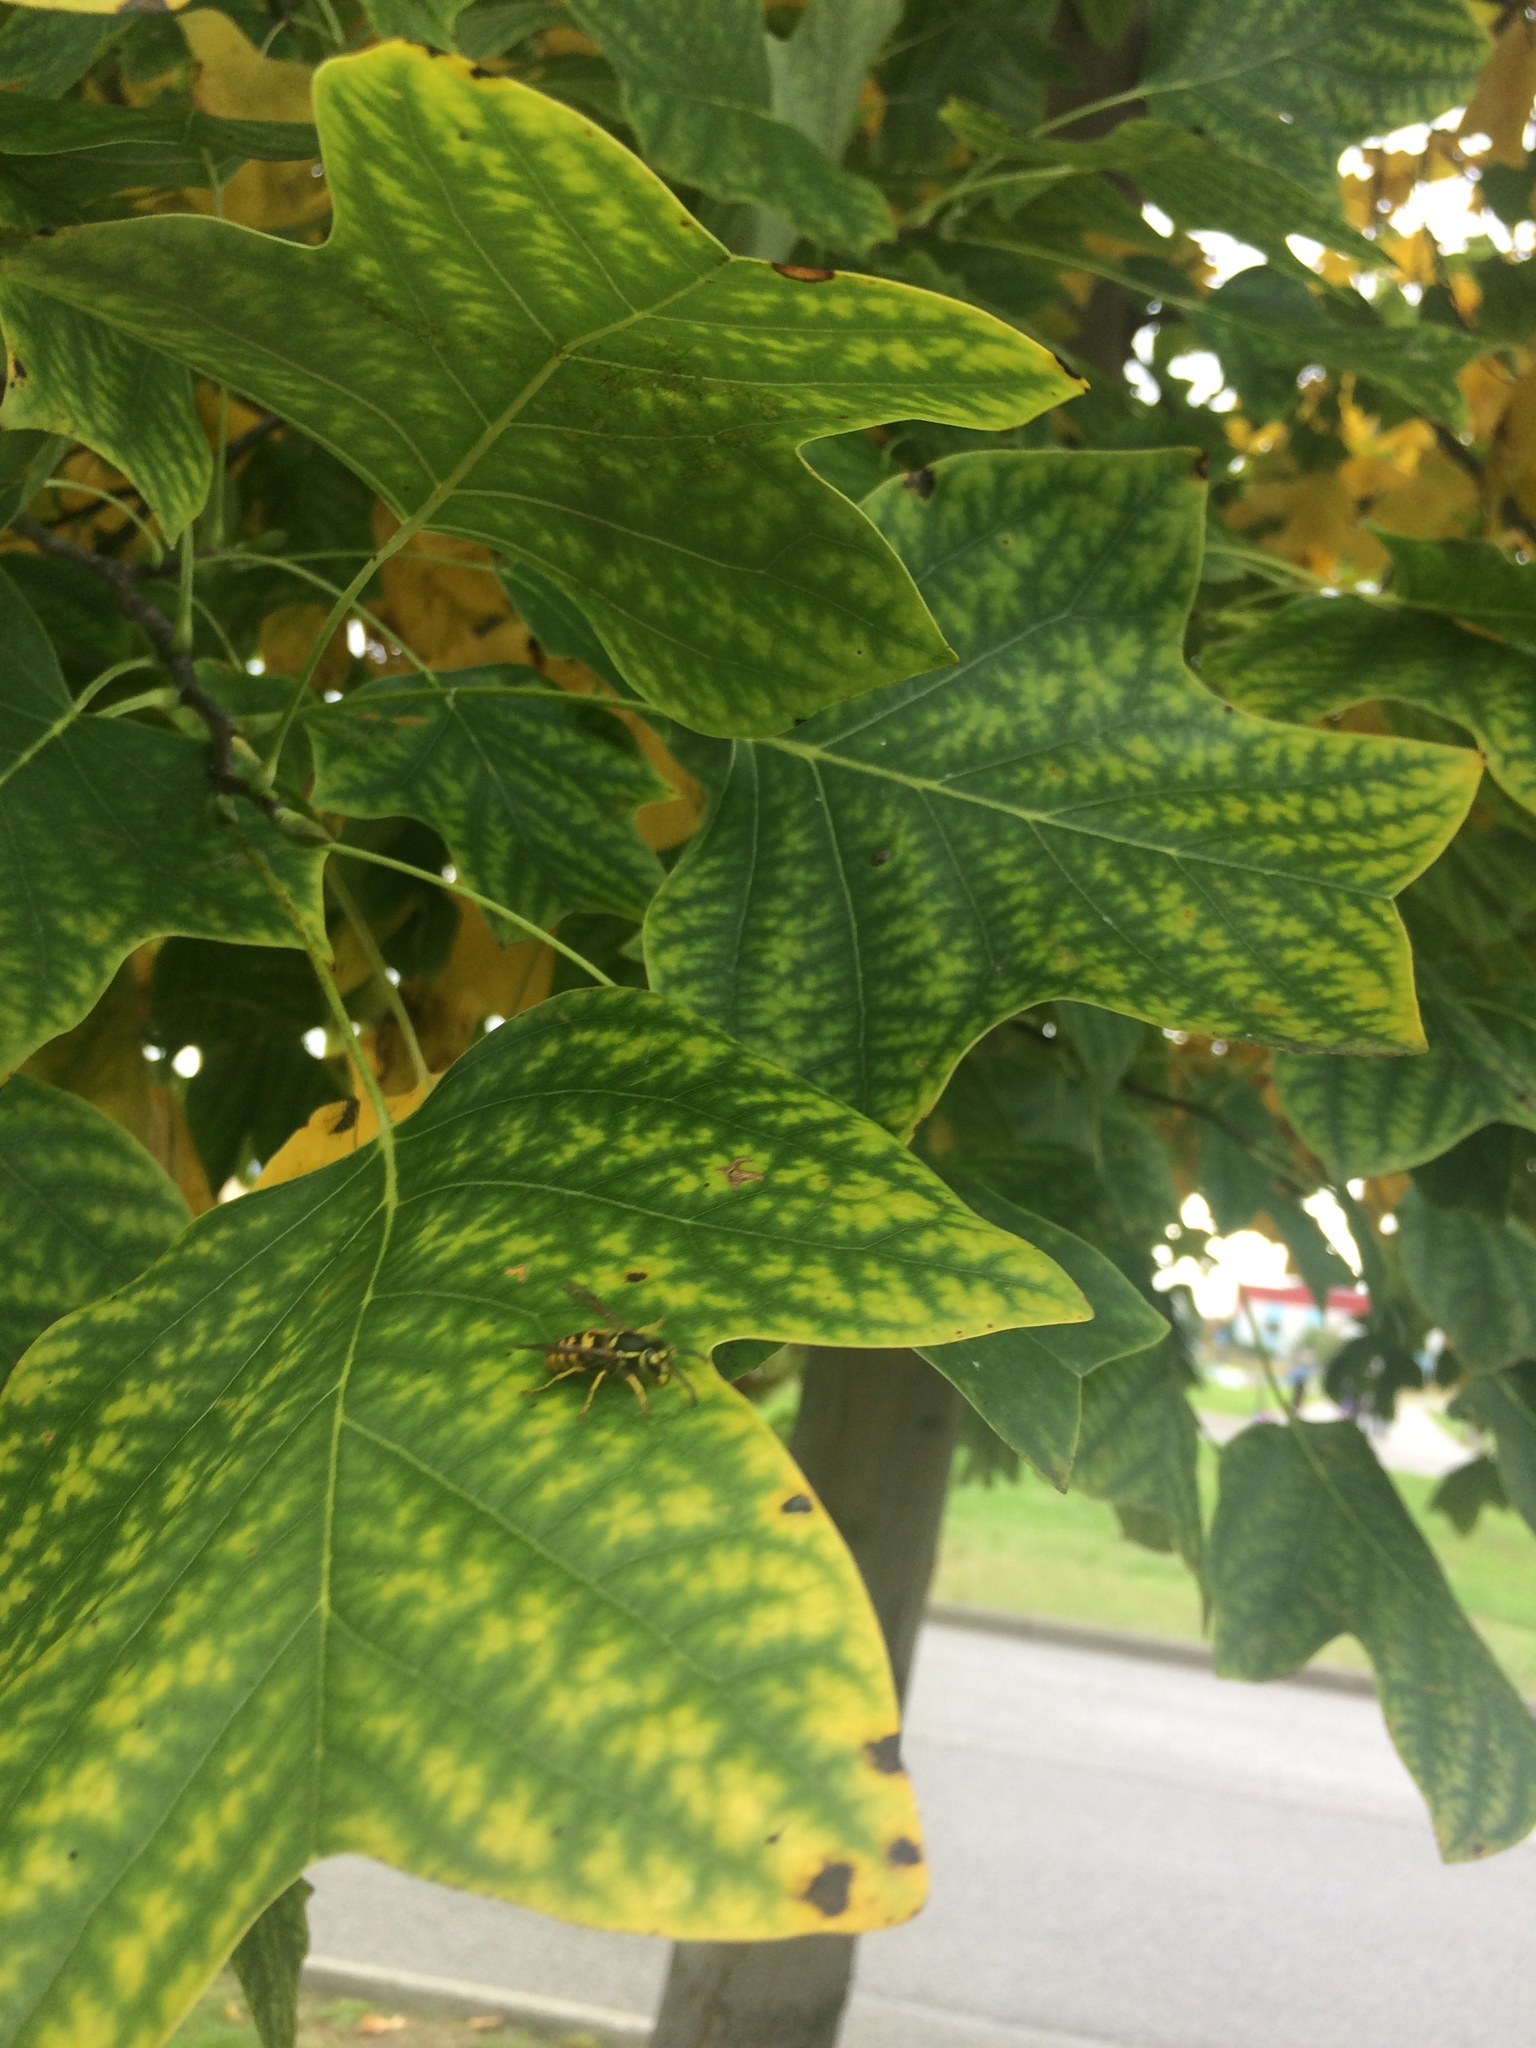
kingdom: Animalia
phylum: Arthropoda
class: Insecta
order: Hymenoptera
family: Vespidae
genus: Vespula
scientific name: Vespula pensylvanica
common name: Western yellowjacket
